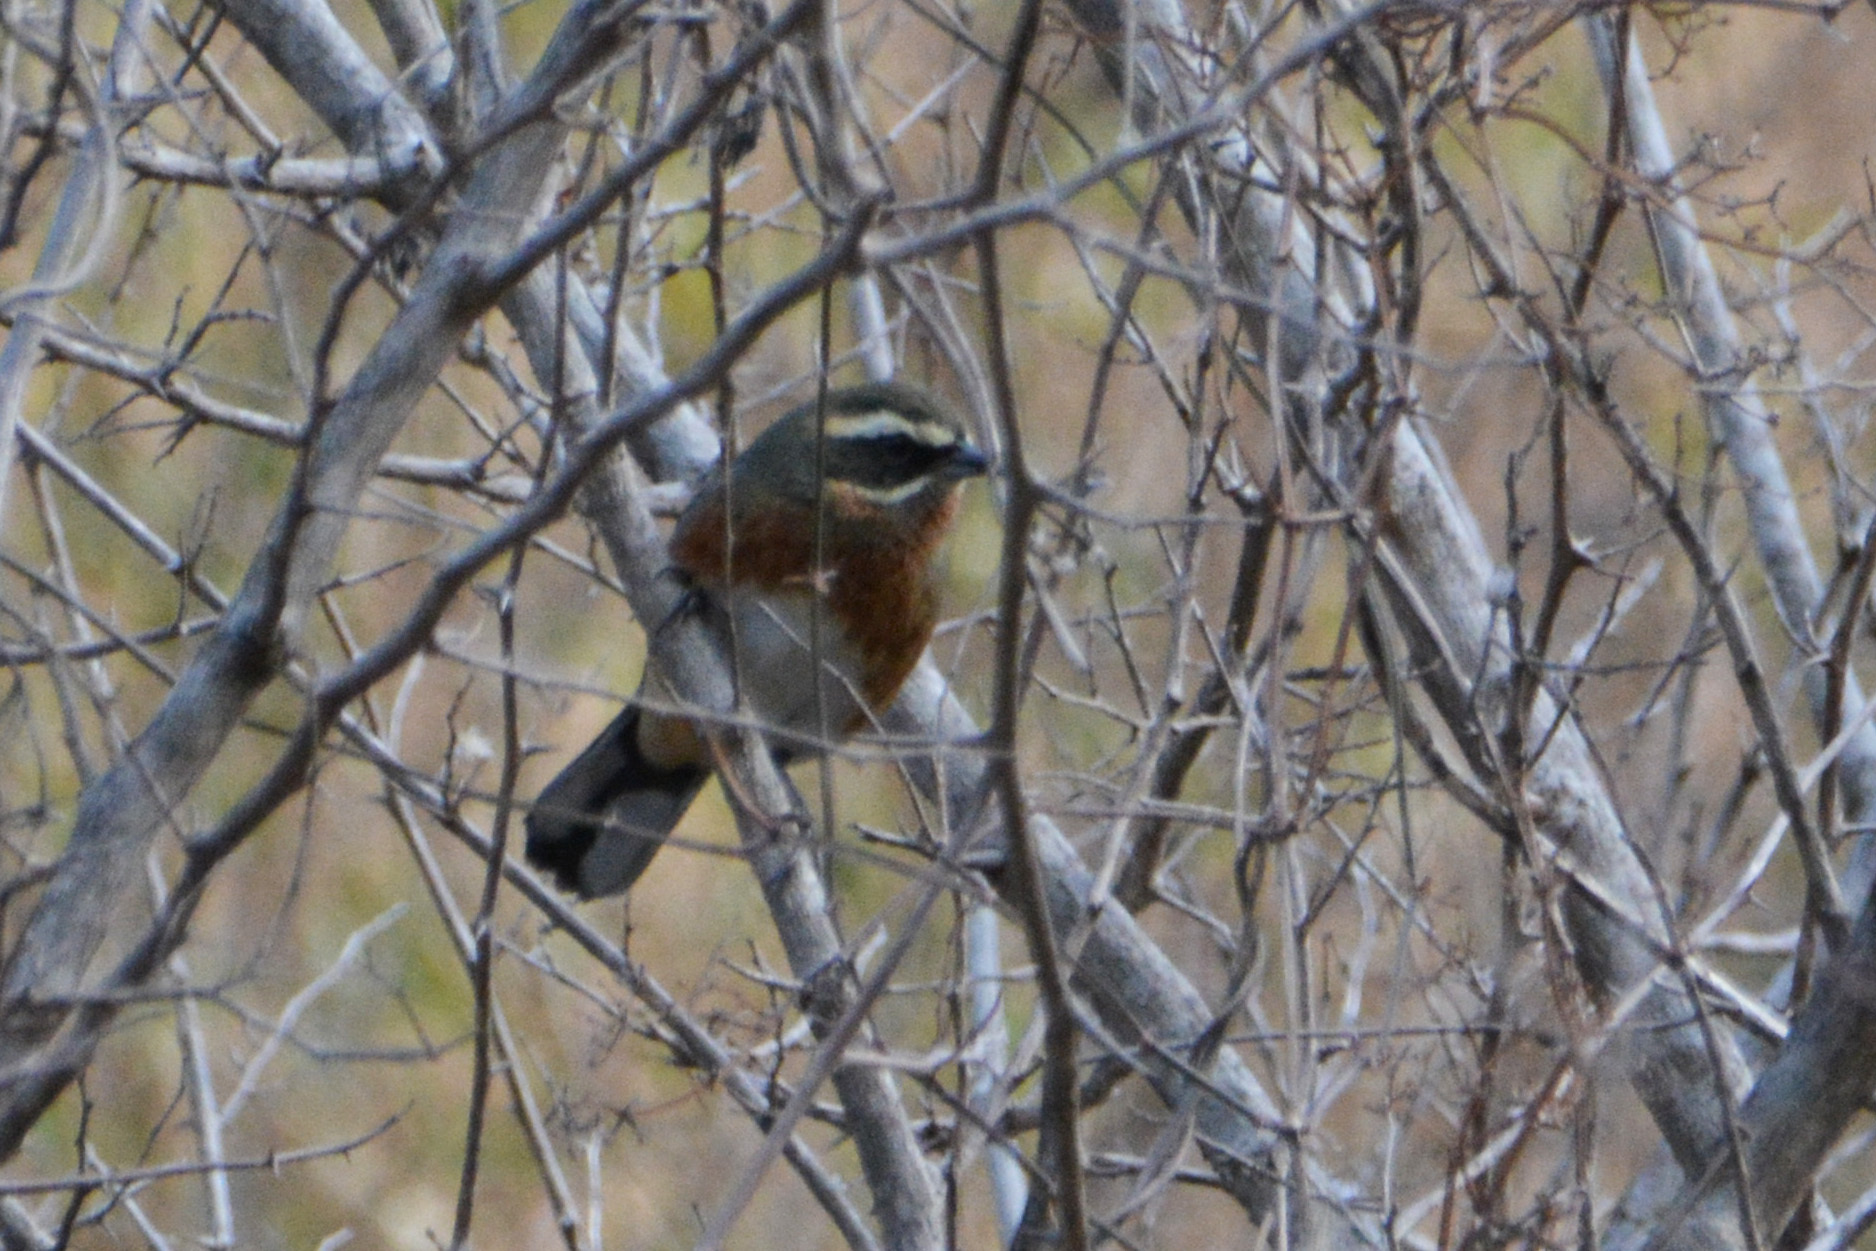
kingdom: Animalia
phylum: Chordata
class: Aves
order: Passeriformes
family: Thraupidae
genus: Poospiza
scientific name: Poospiza whitii
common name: Black-and-chestnut warbling finch
